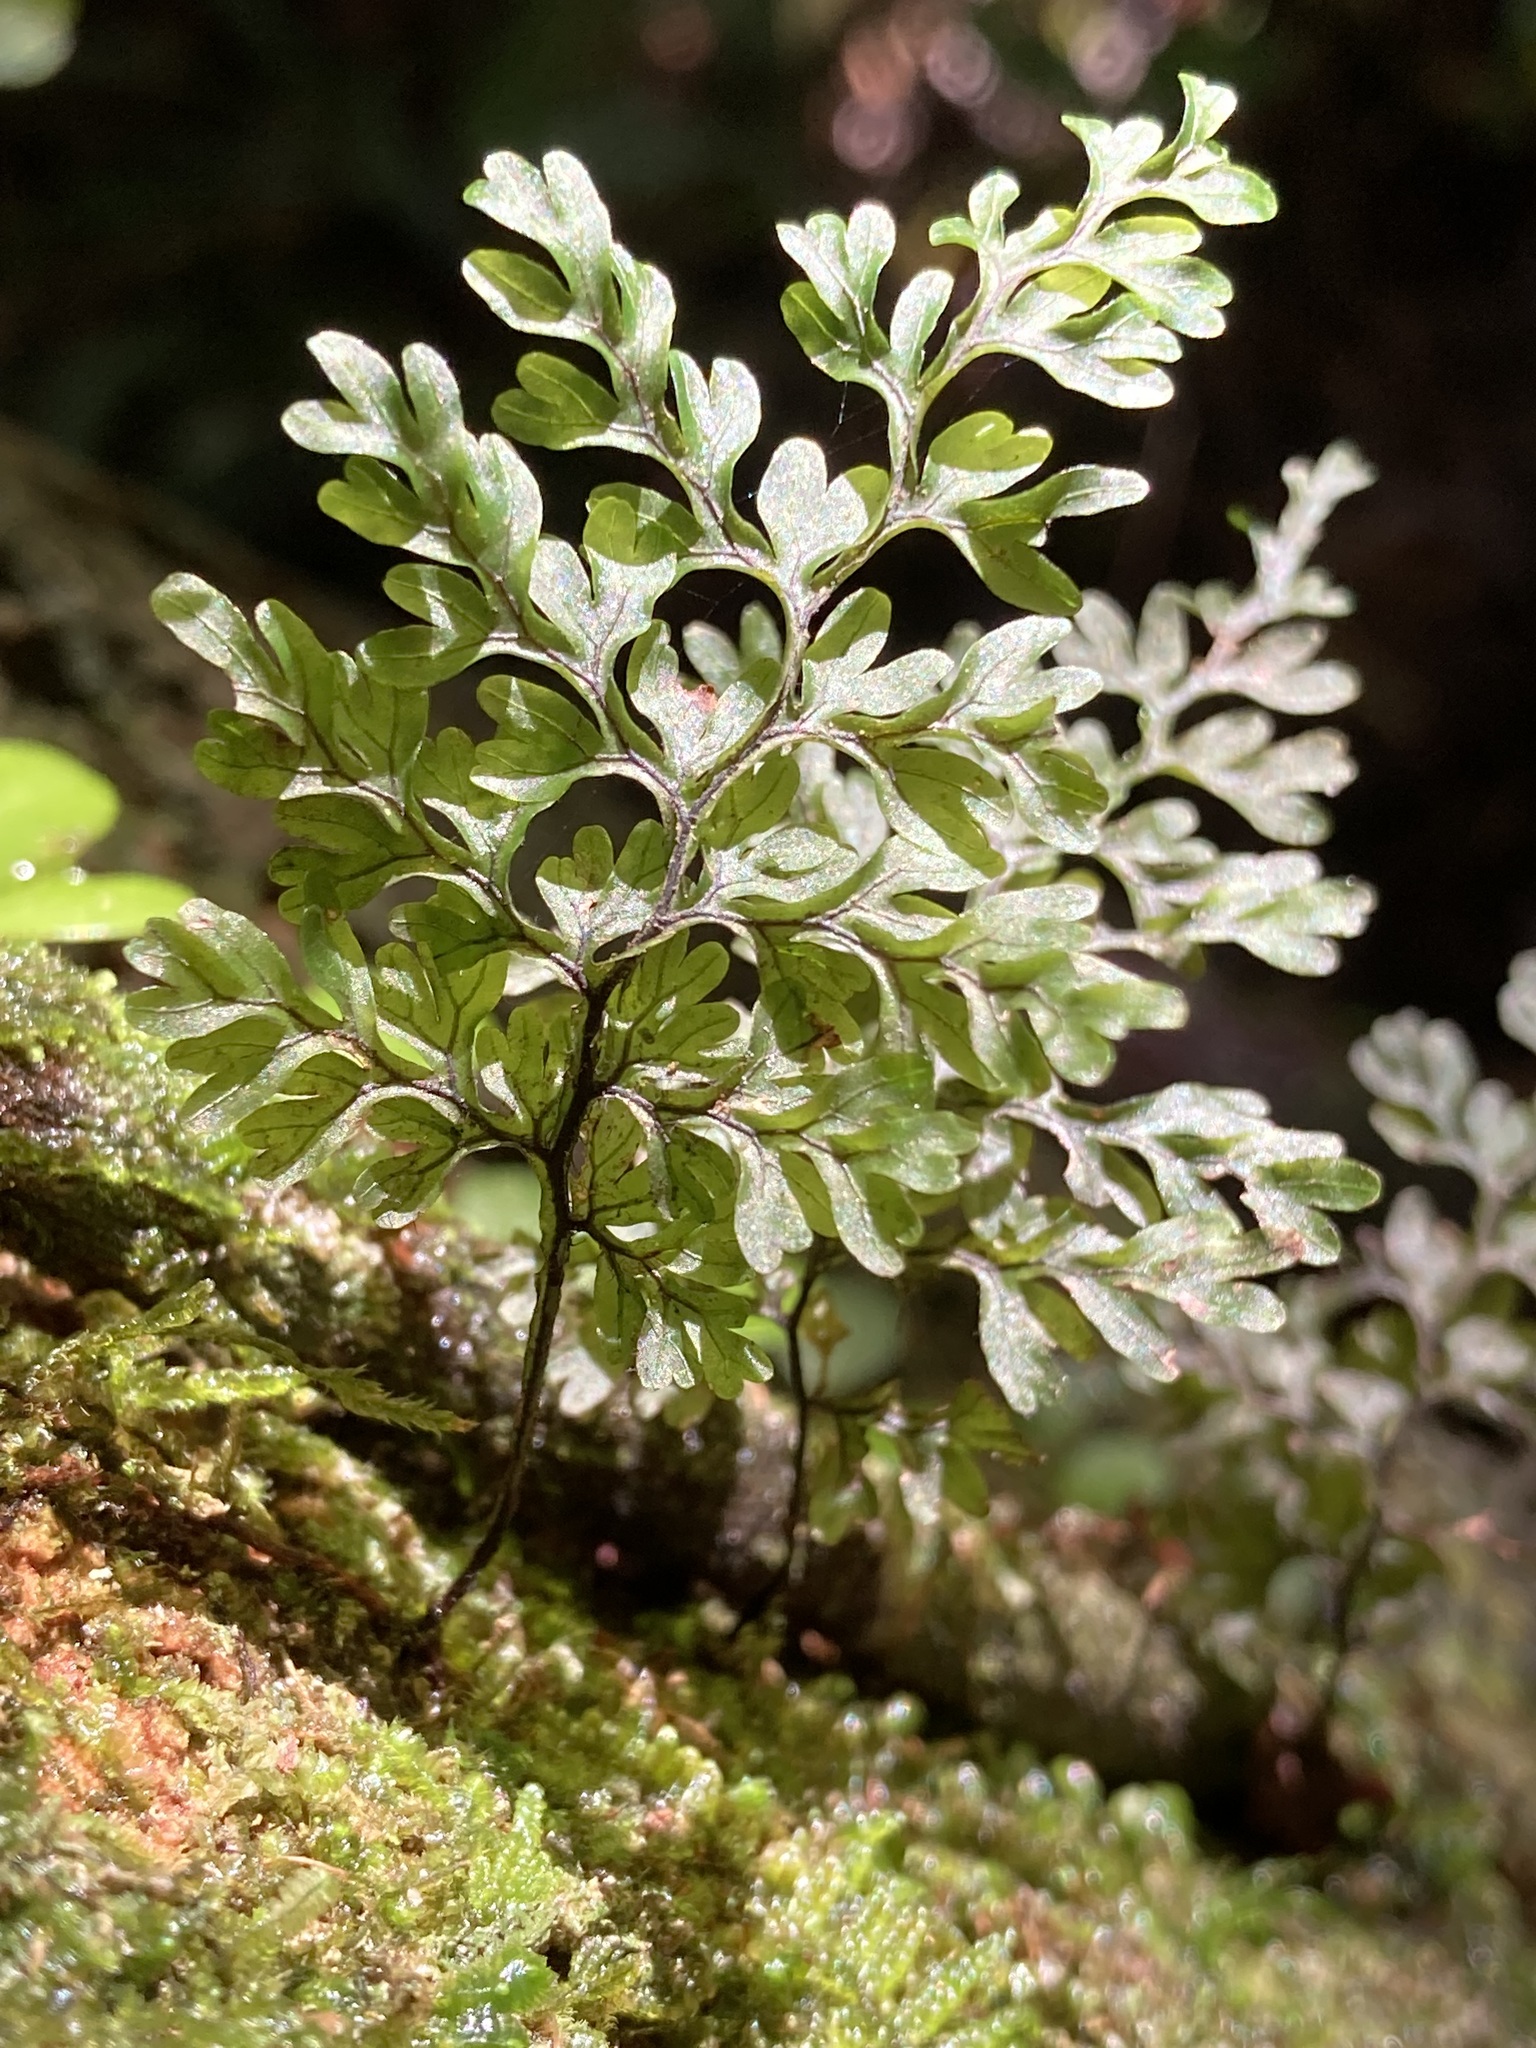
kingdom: Plantae
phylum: Tracheophyta
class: Polypodiopsida
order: Hymenophyllales
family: Hymenophyllaceae
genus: Hymenophyllum
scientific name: Hymenophyllum sanguinolentum
